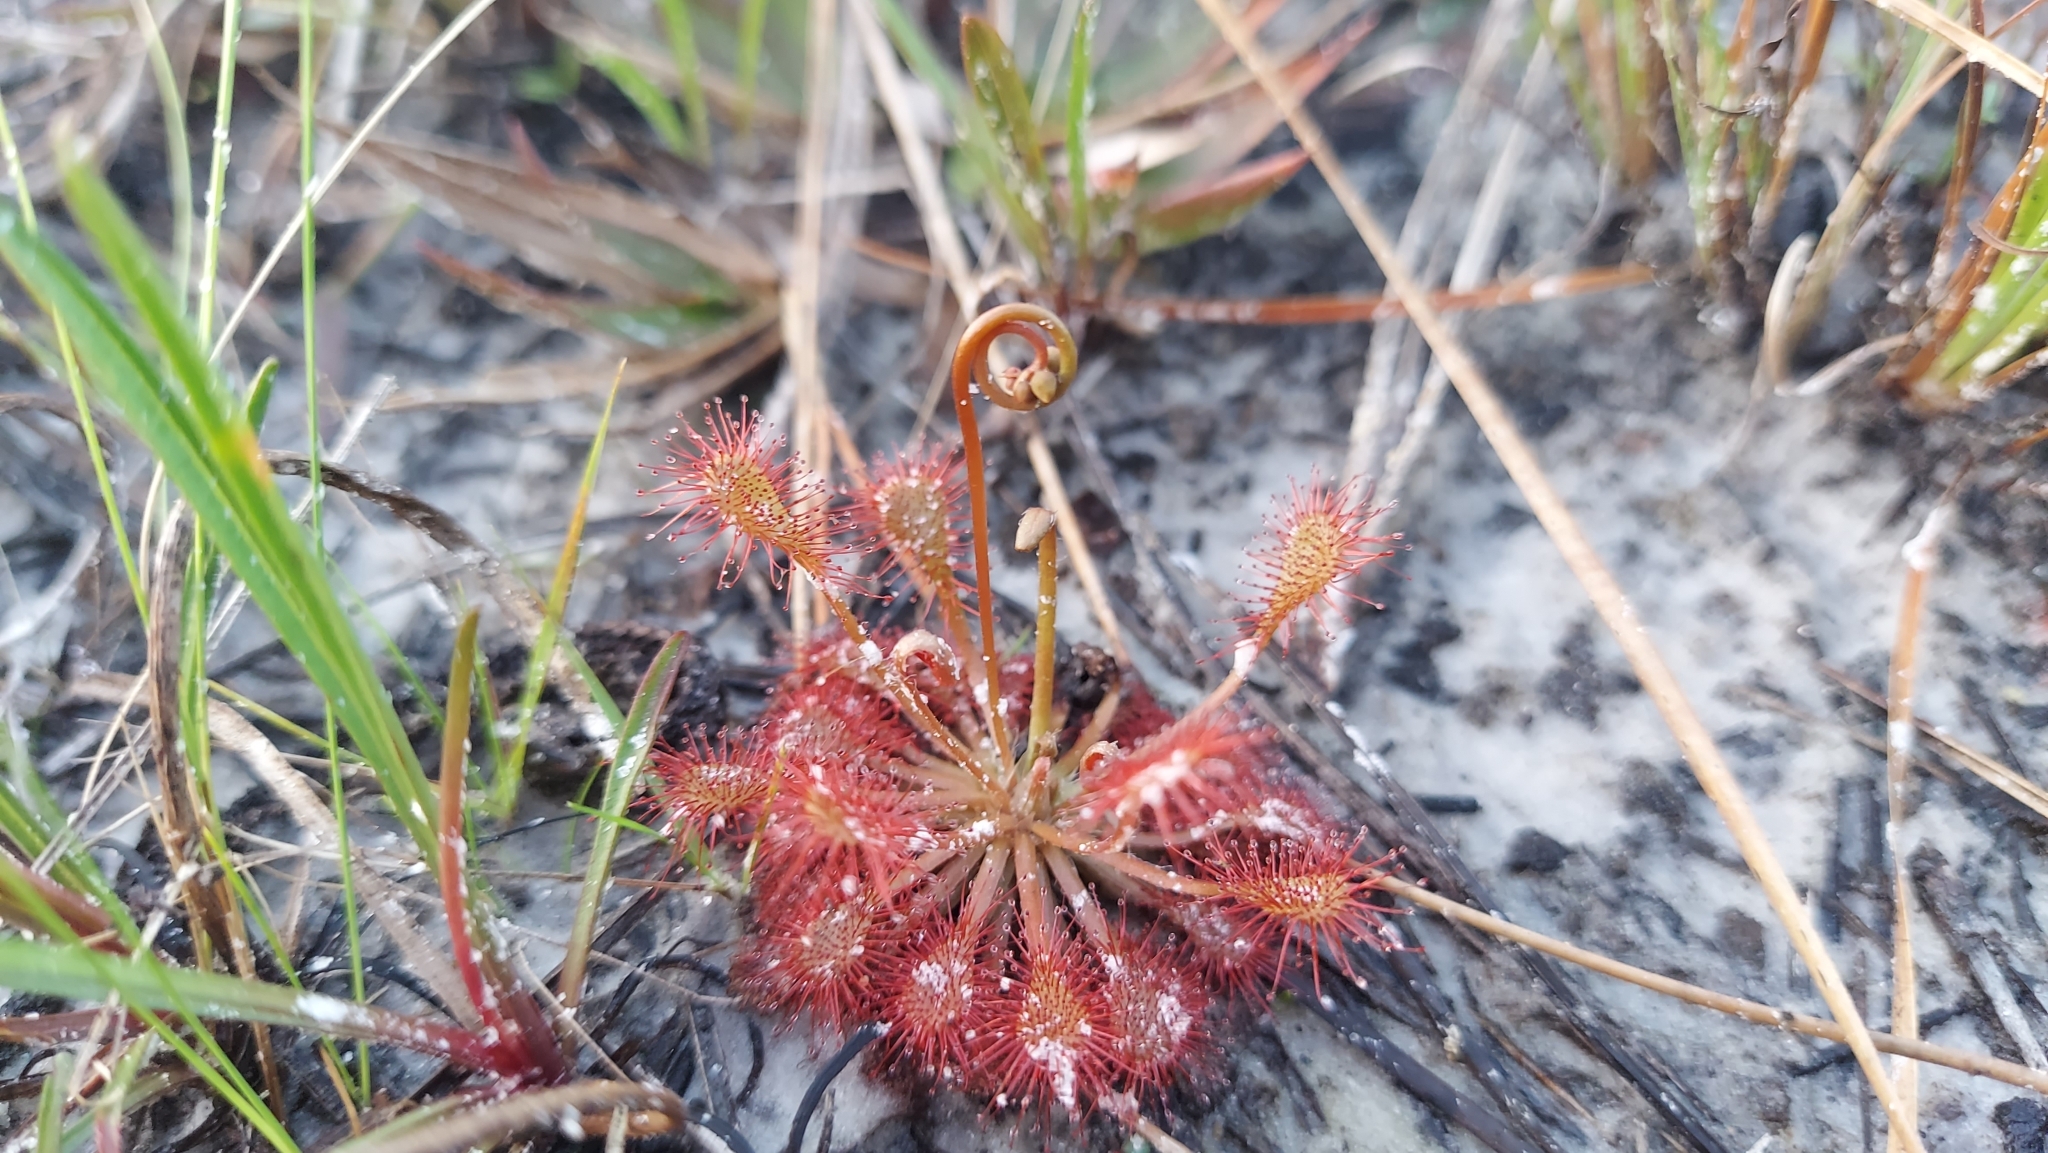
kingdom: Plantae
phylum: Tracheophyta
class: Magnoliopsida
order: Caryophyllales
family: Droseraceae
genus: Drosera
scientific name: Drosera capillaris
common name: Pink sundew
